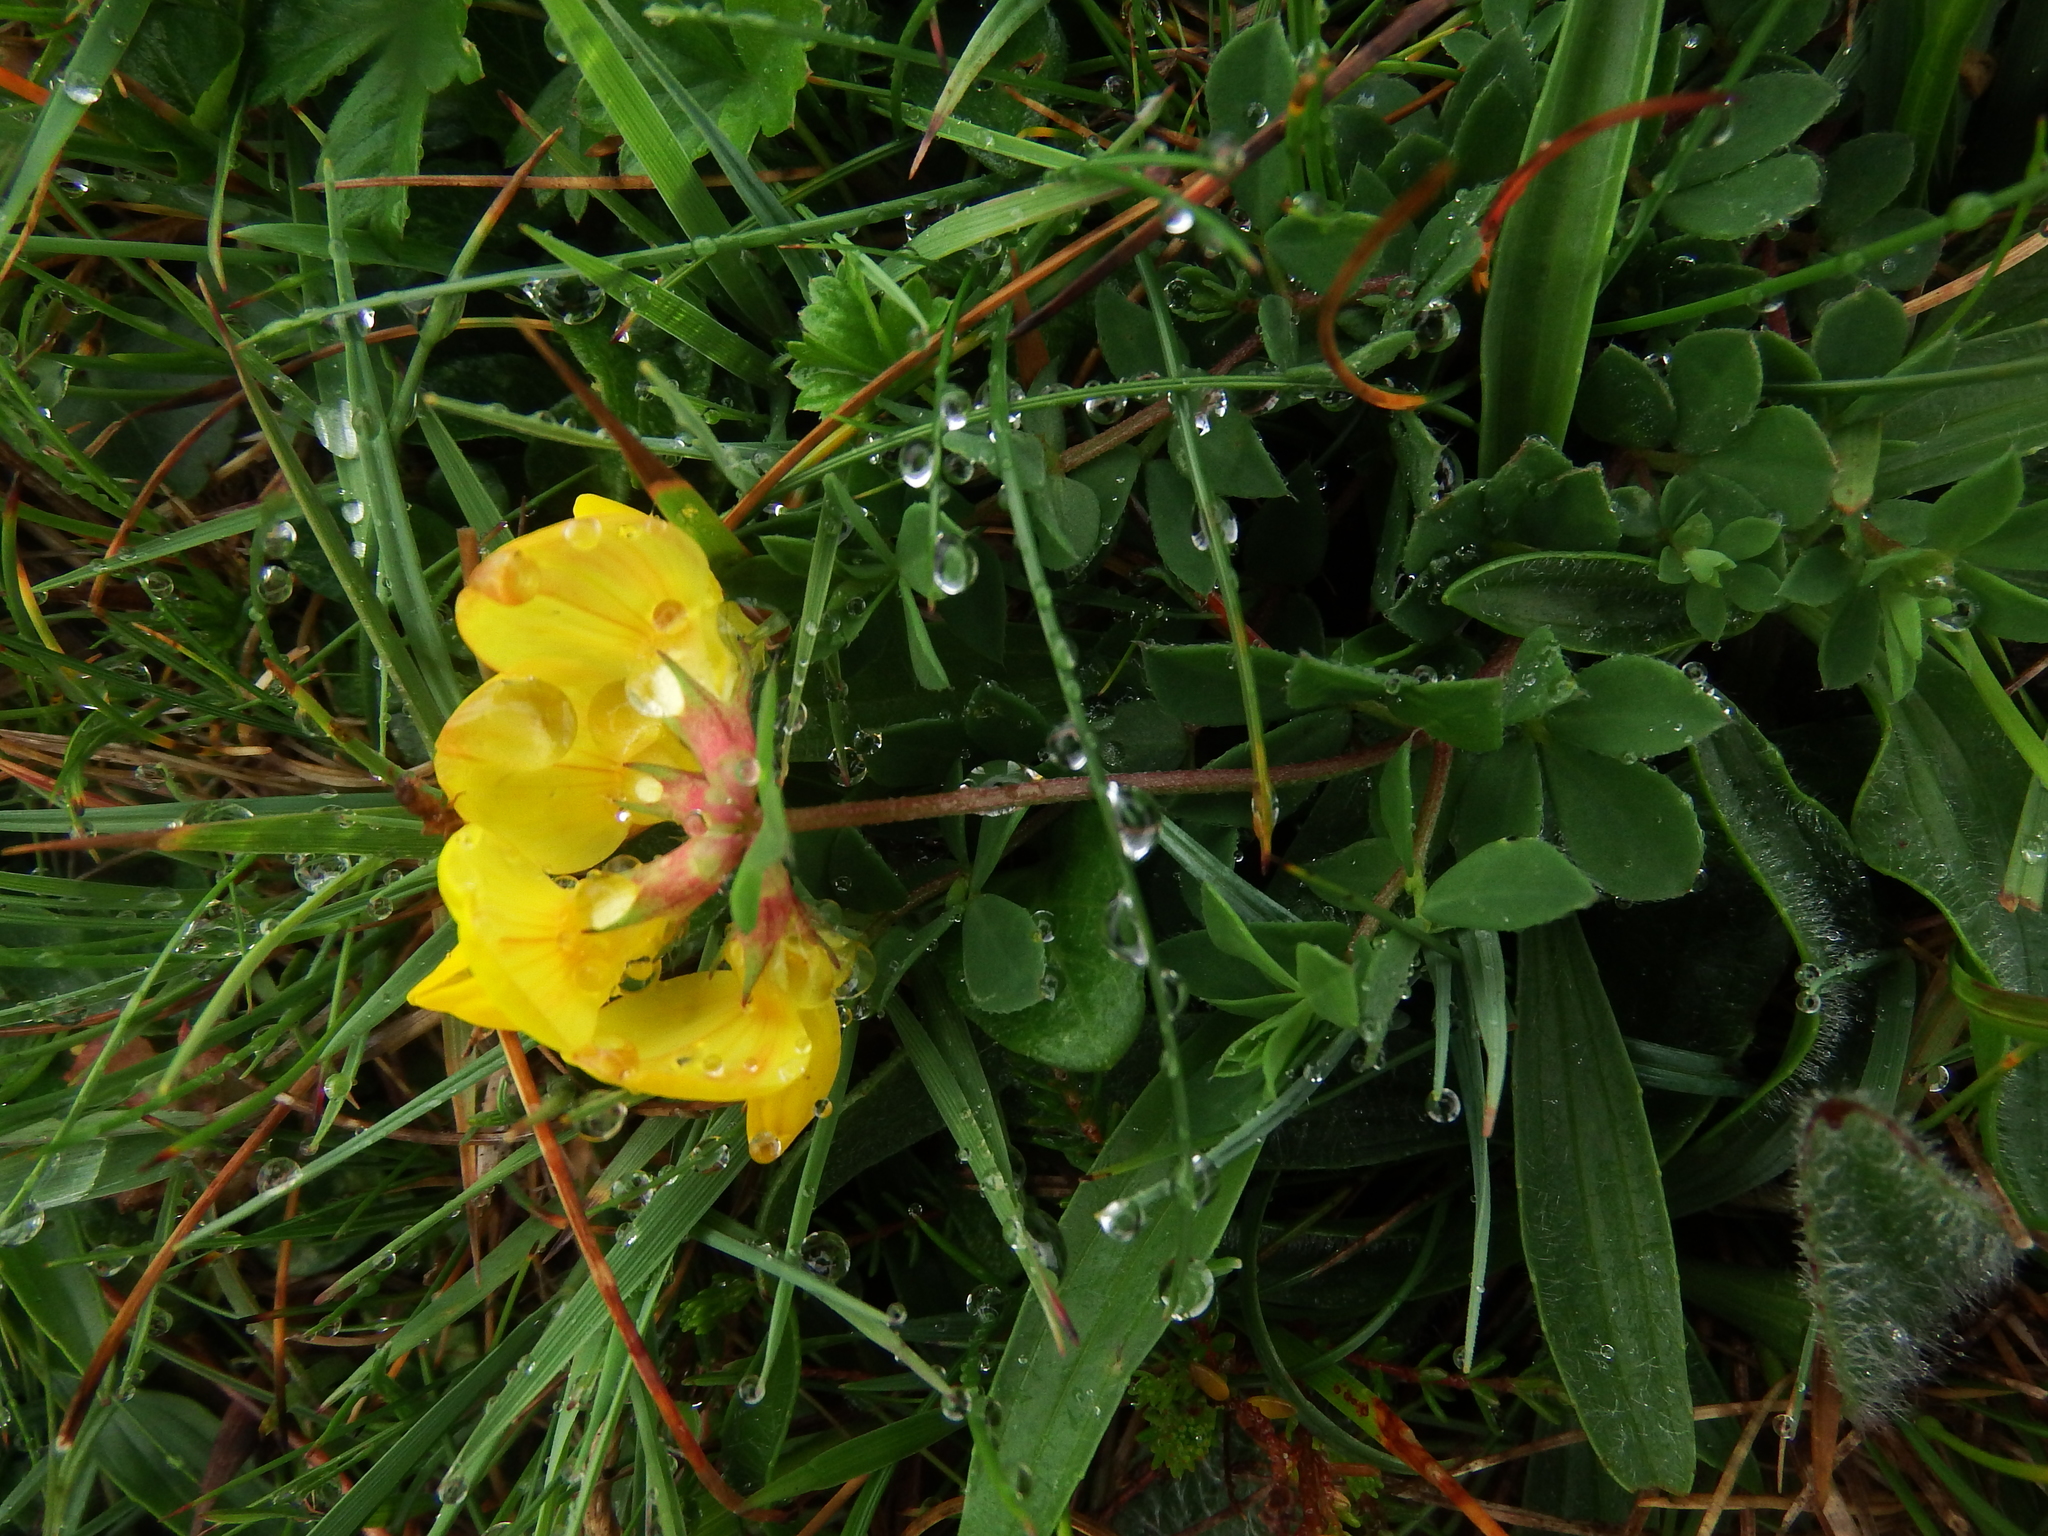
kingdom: Plantae
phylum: Tracheophyta
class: Magnoliopsida
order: Fabales
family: Fabaceae
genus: Lotus
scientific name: Lotus corniculatus
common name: Common bird's-foot-trefoil
